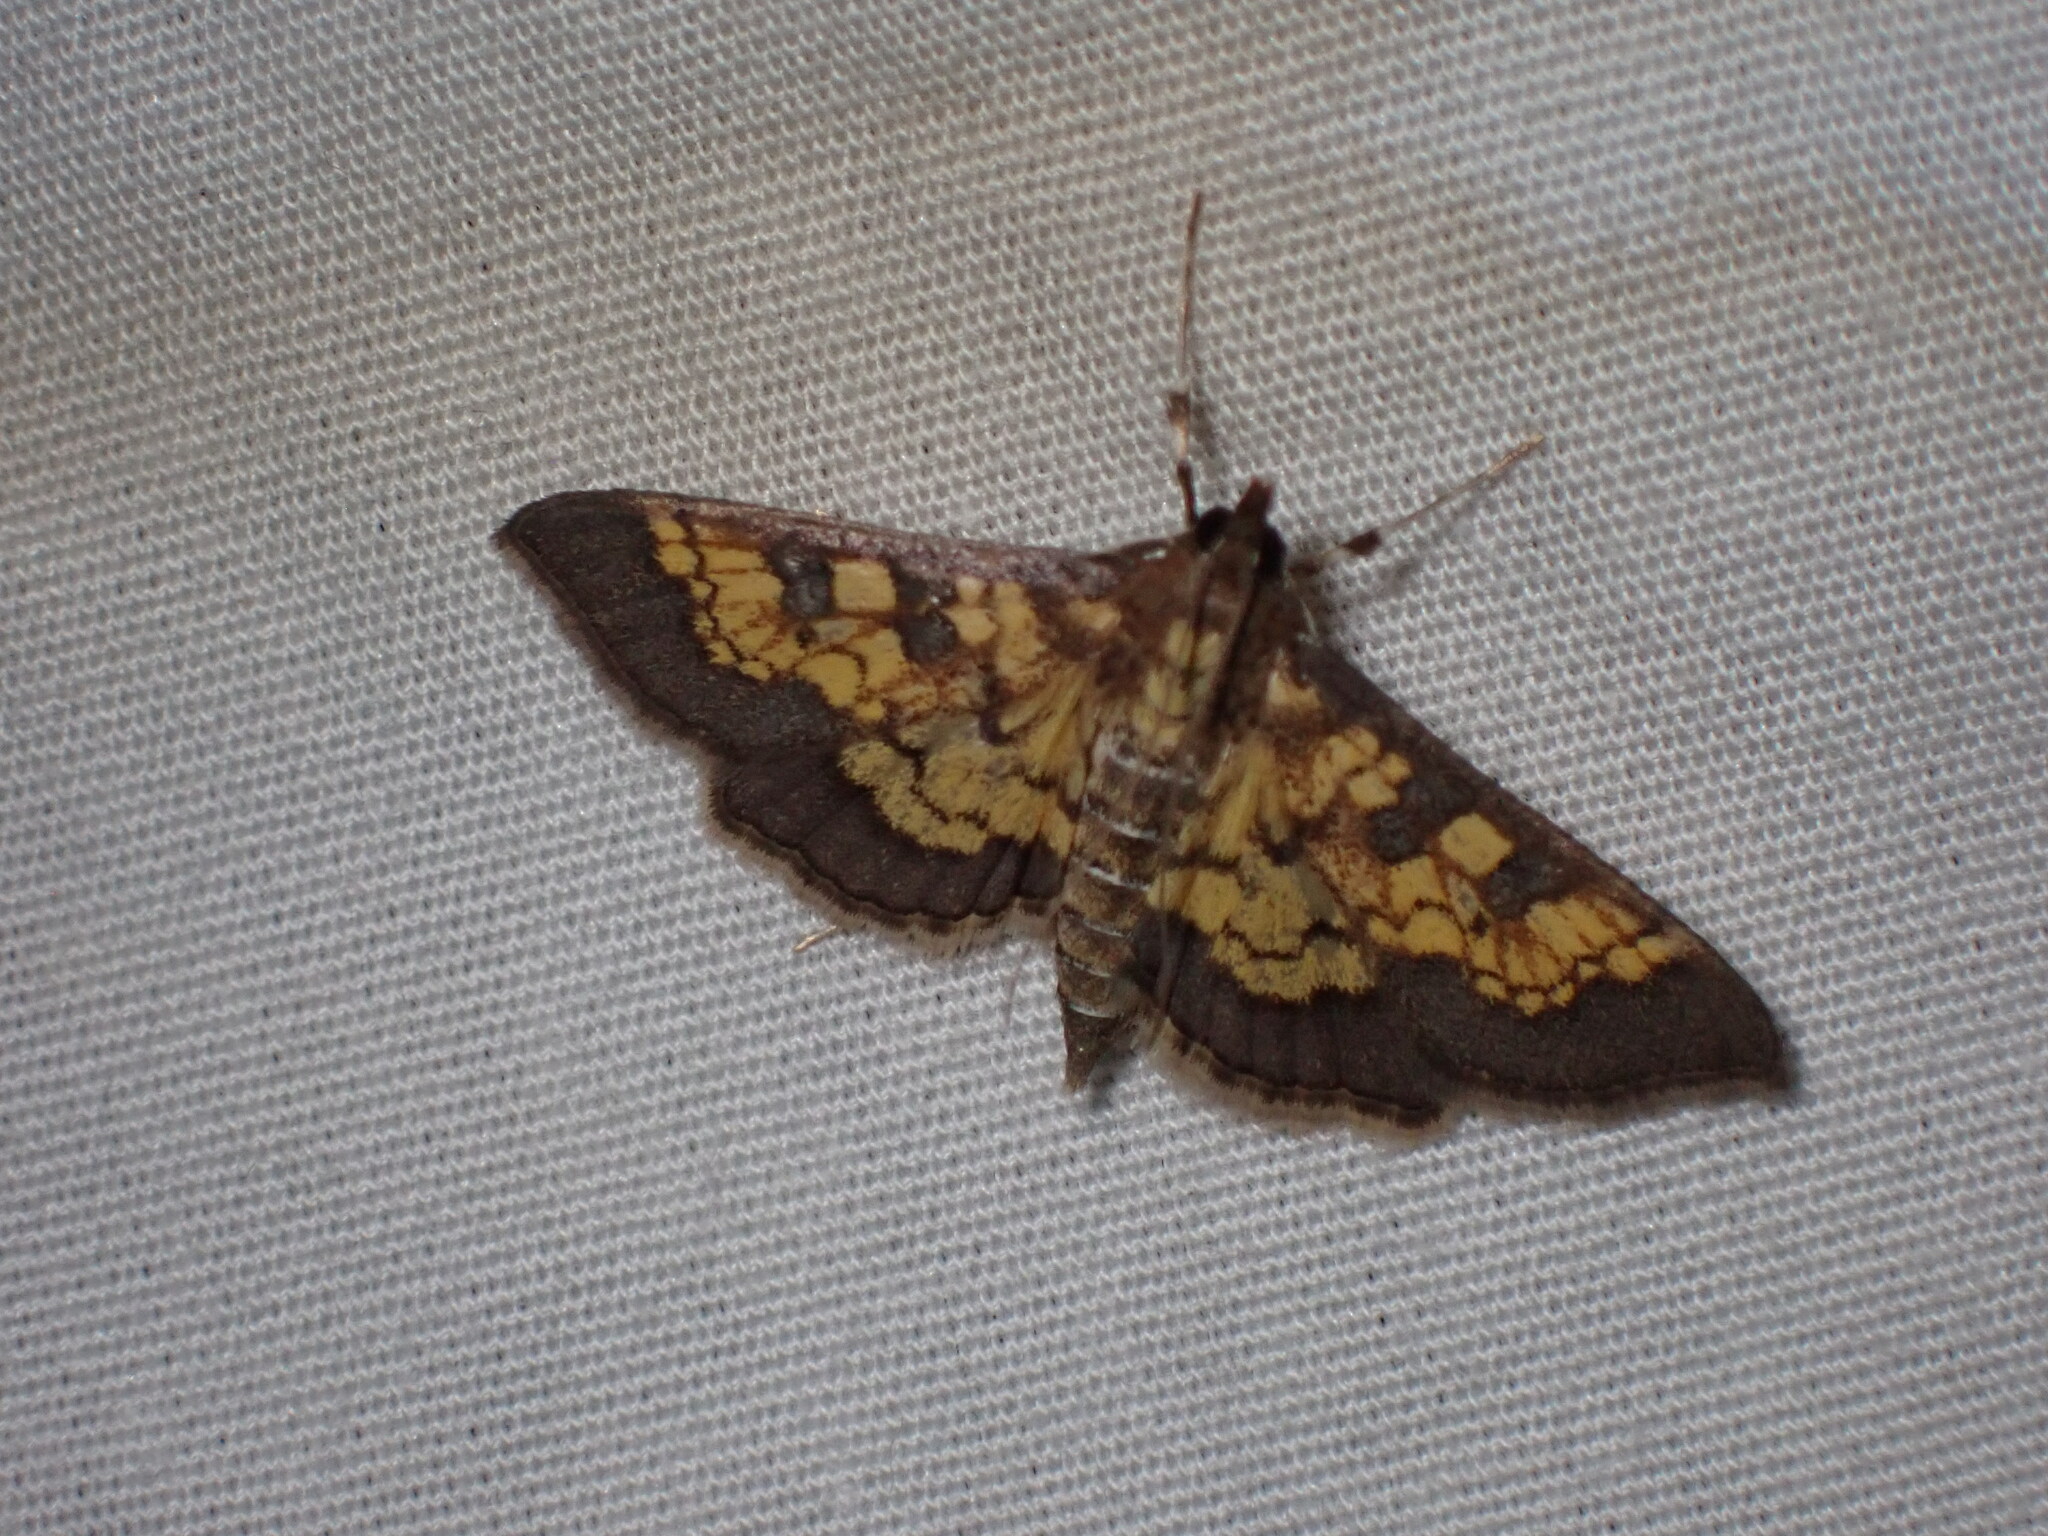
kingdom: Animalia
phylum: Arthropoda
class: Insecta
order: Lepidoptera
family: Crambidae
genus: Epipagis
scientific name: Epipagis adipaloides
